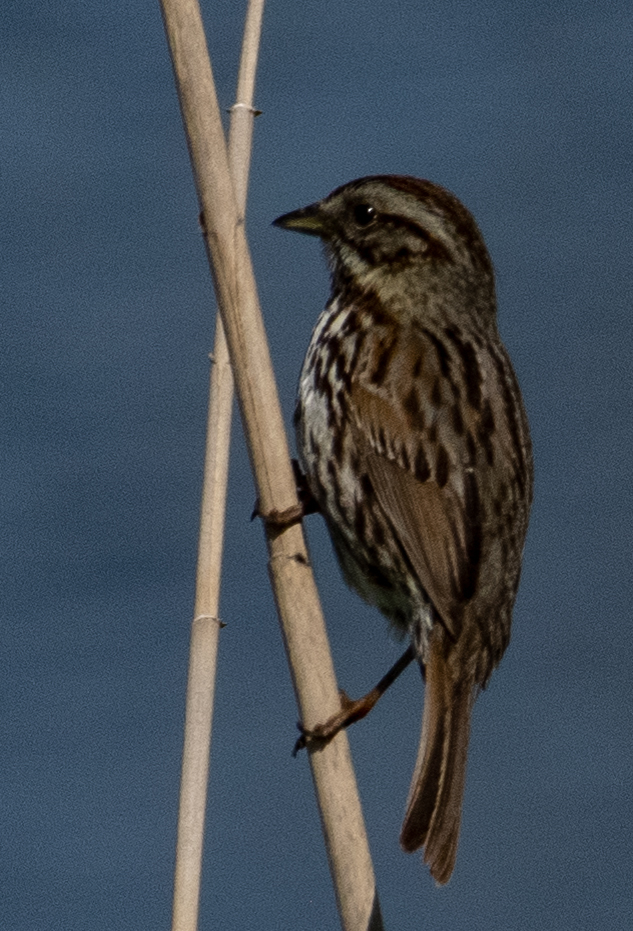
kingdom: Animalia
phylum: Chordata
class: Aves
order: Passeriformes
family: Passerellidae
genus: Melospiza
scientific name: Melospiza melodia
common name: Song sparrow
